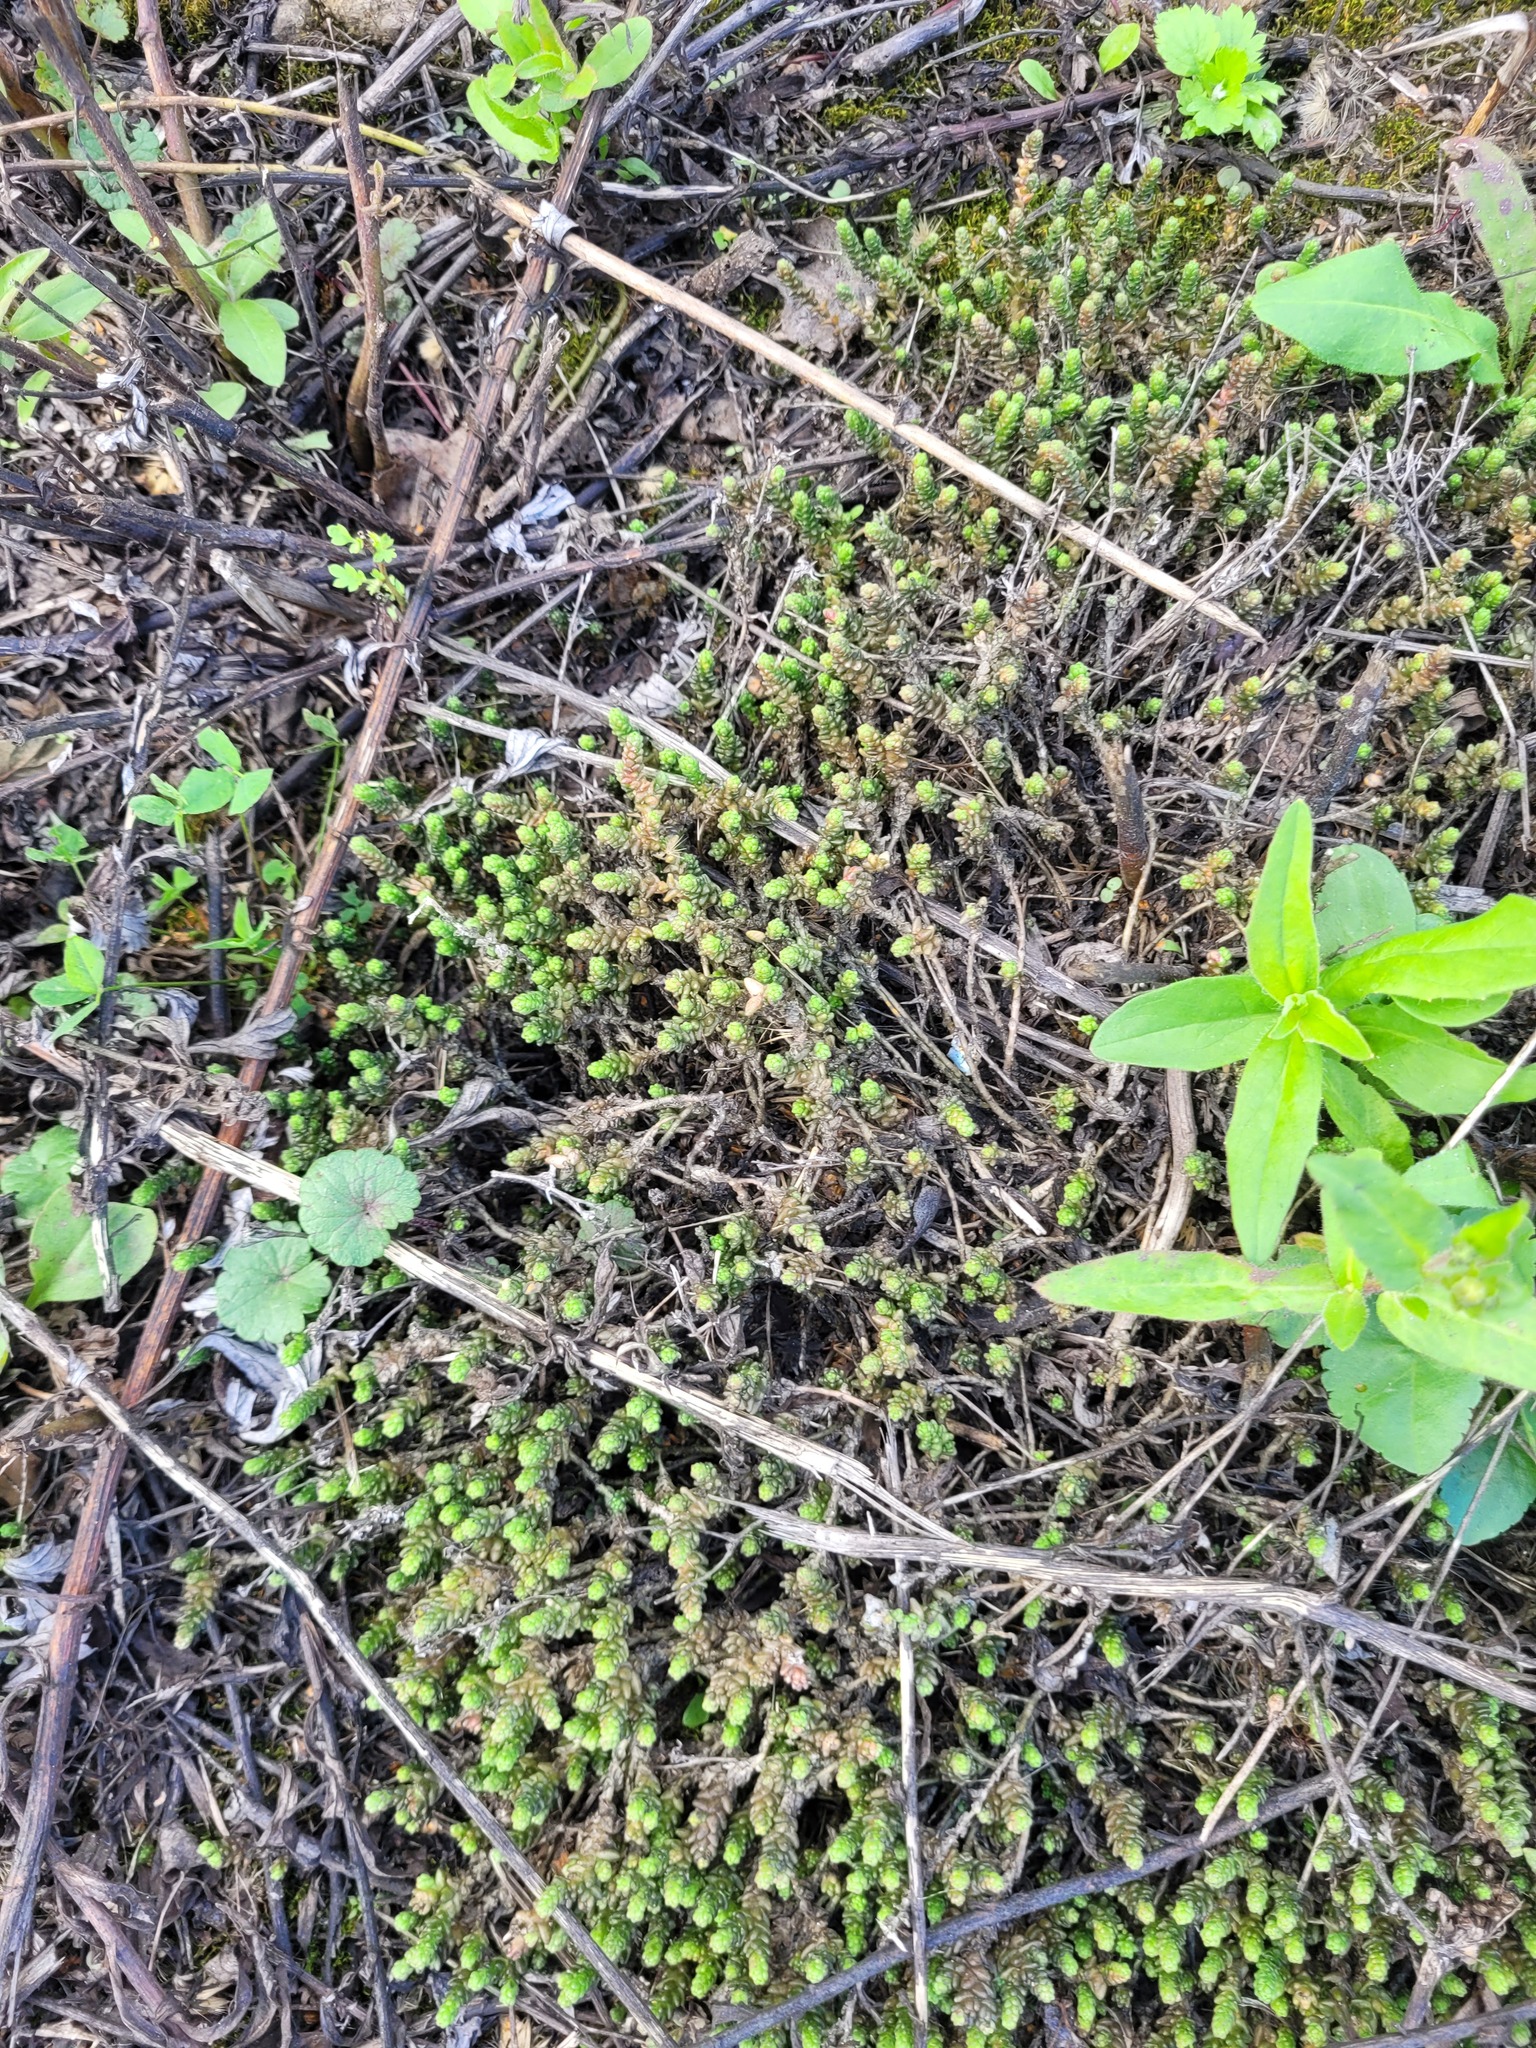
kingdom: Plantae
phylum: Tracheophyta
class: Magnoliopsida
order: Saxifragales
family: Crassulaceae
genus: Sedum
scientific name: Sedum acre
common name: Biting stonecrop
